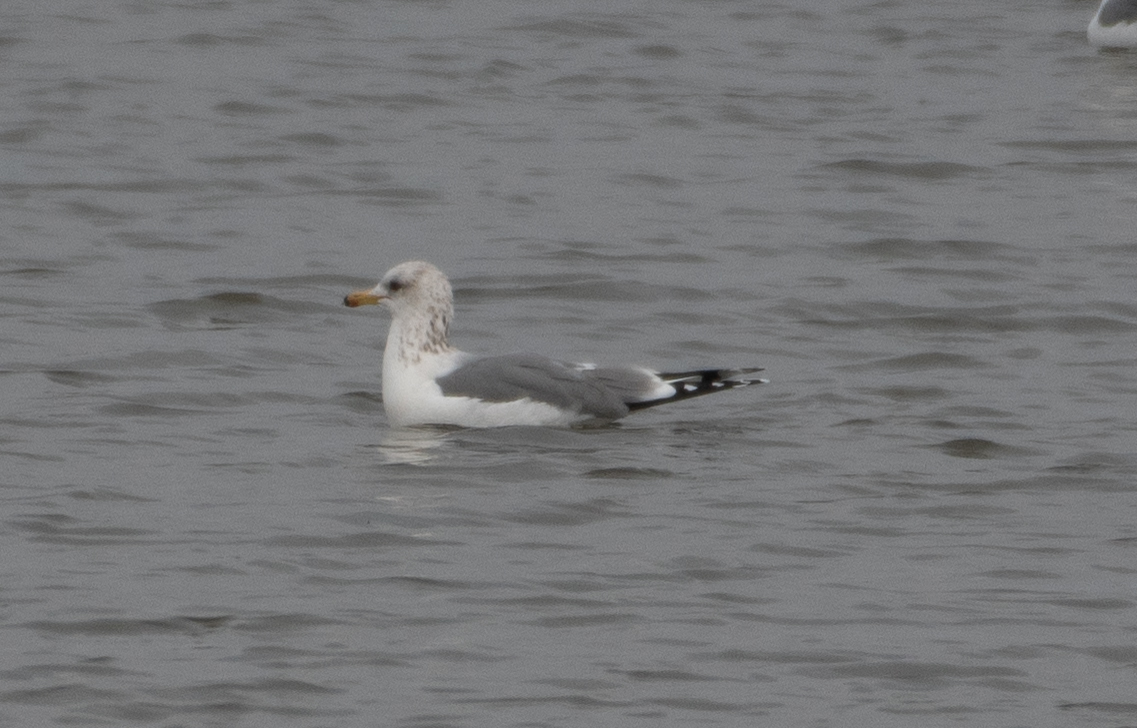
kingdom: Animalia
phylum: Chordata
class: Aves
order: Charadriiformes
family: Laridae
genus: Larus
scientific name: Larus californicus
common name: California gull
